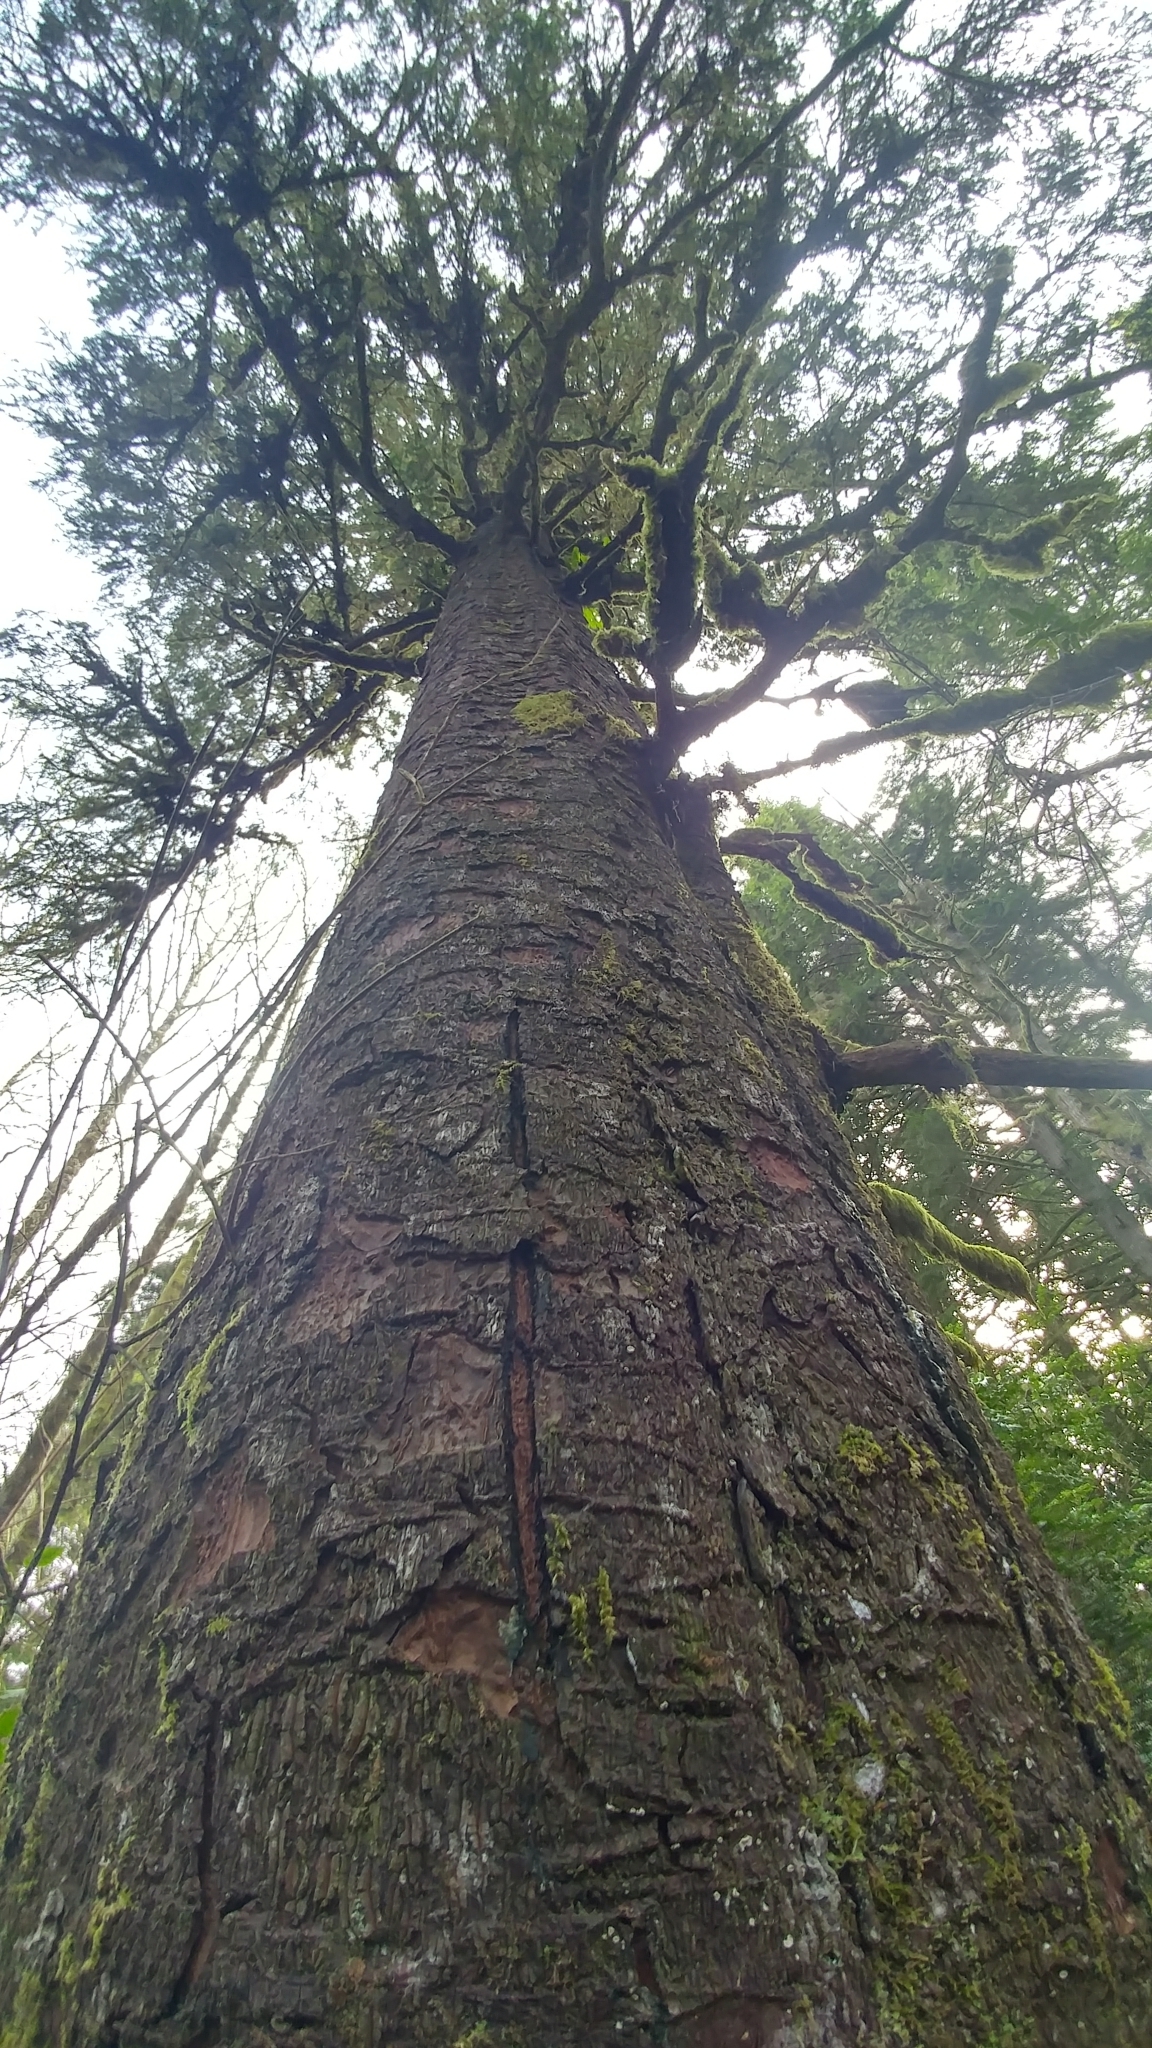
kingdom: Plantae
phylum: Tracheophyta
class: Pinopsida
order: Pinales
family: Pinaceae
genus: Picea
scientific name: Picea sitchensis
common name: Sitka spruce
